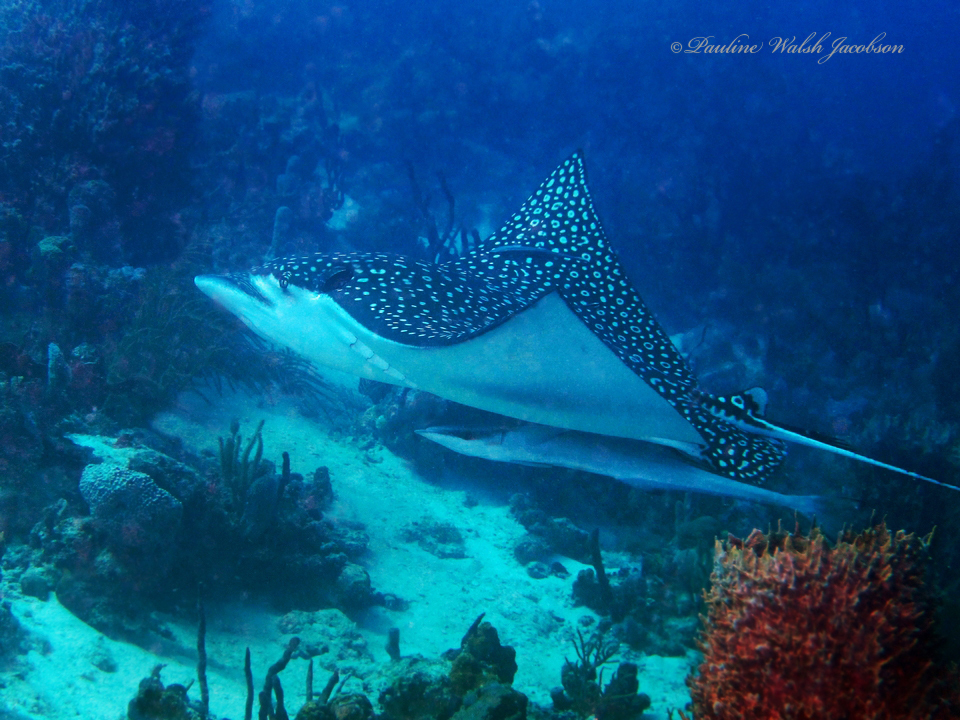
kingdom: Animalia
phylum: Chordata
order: Perciformes
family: Echeneidae
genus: Echeneis
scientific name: Echeneis neucratoides
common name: Whitefin sharksucker
